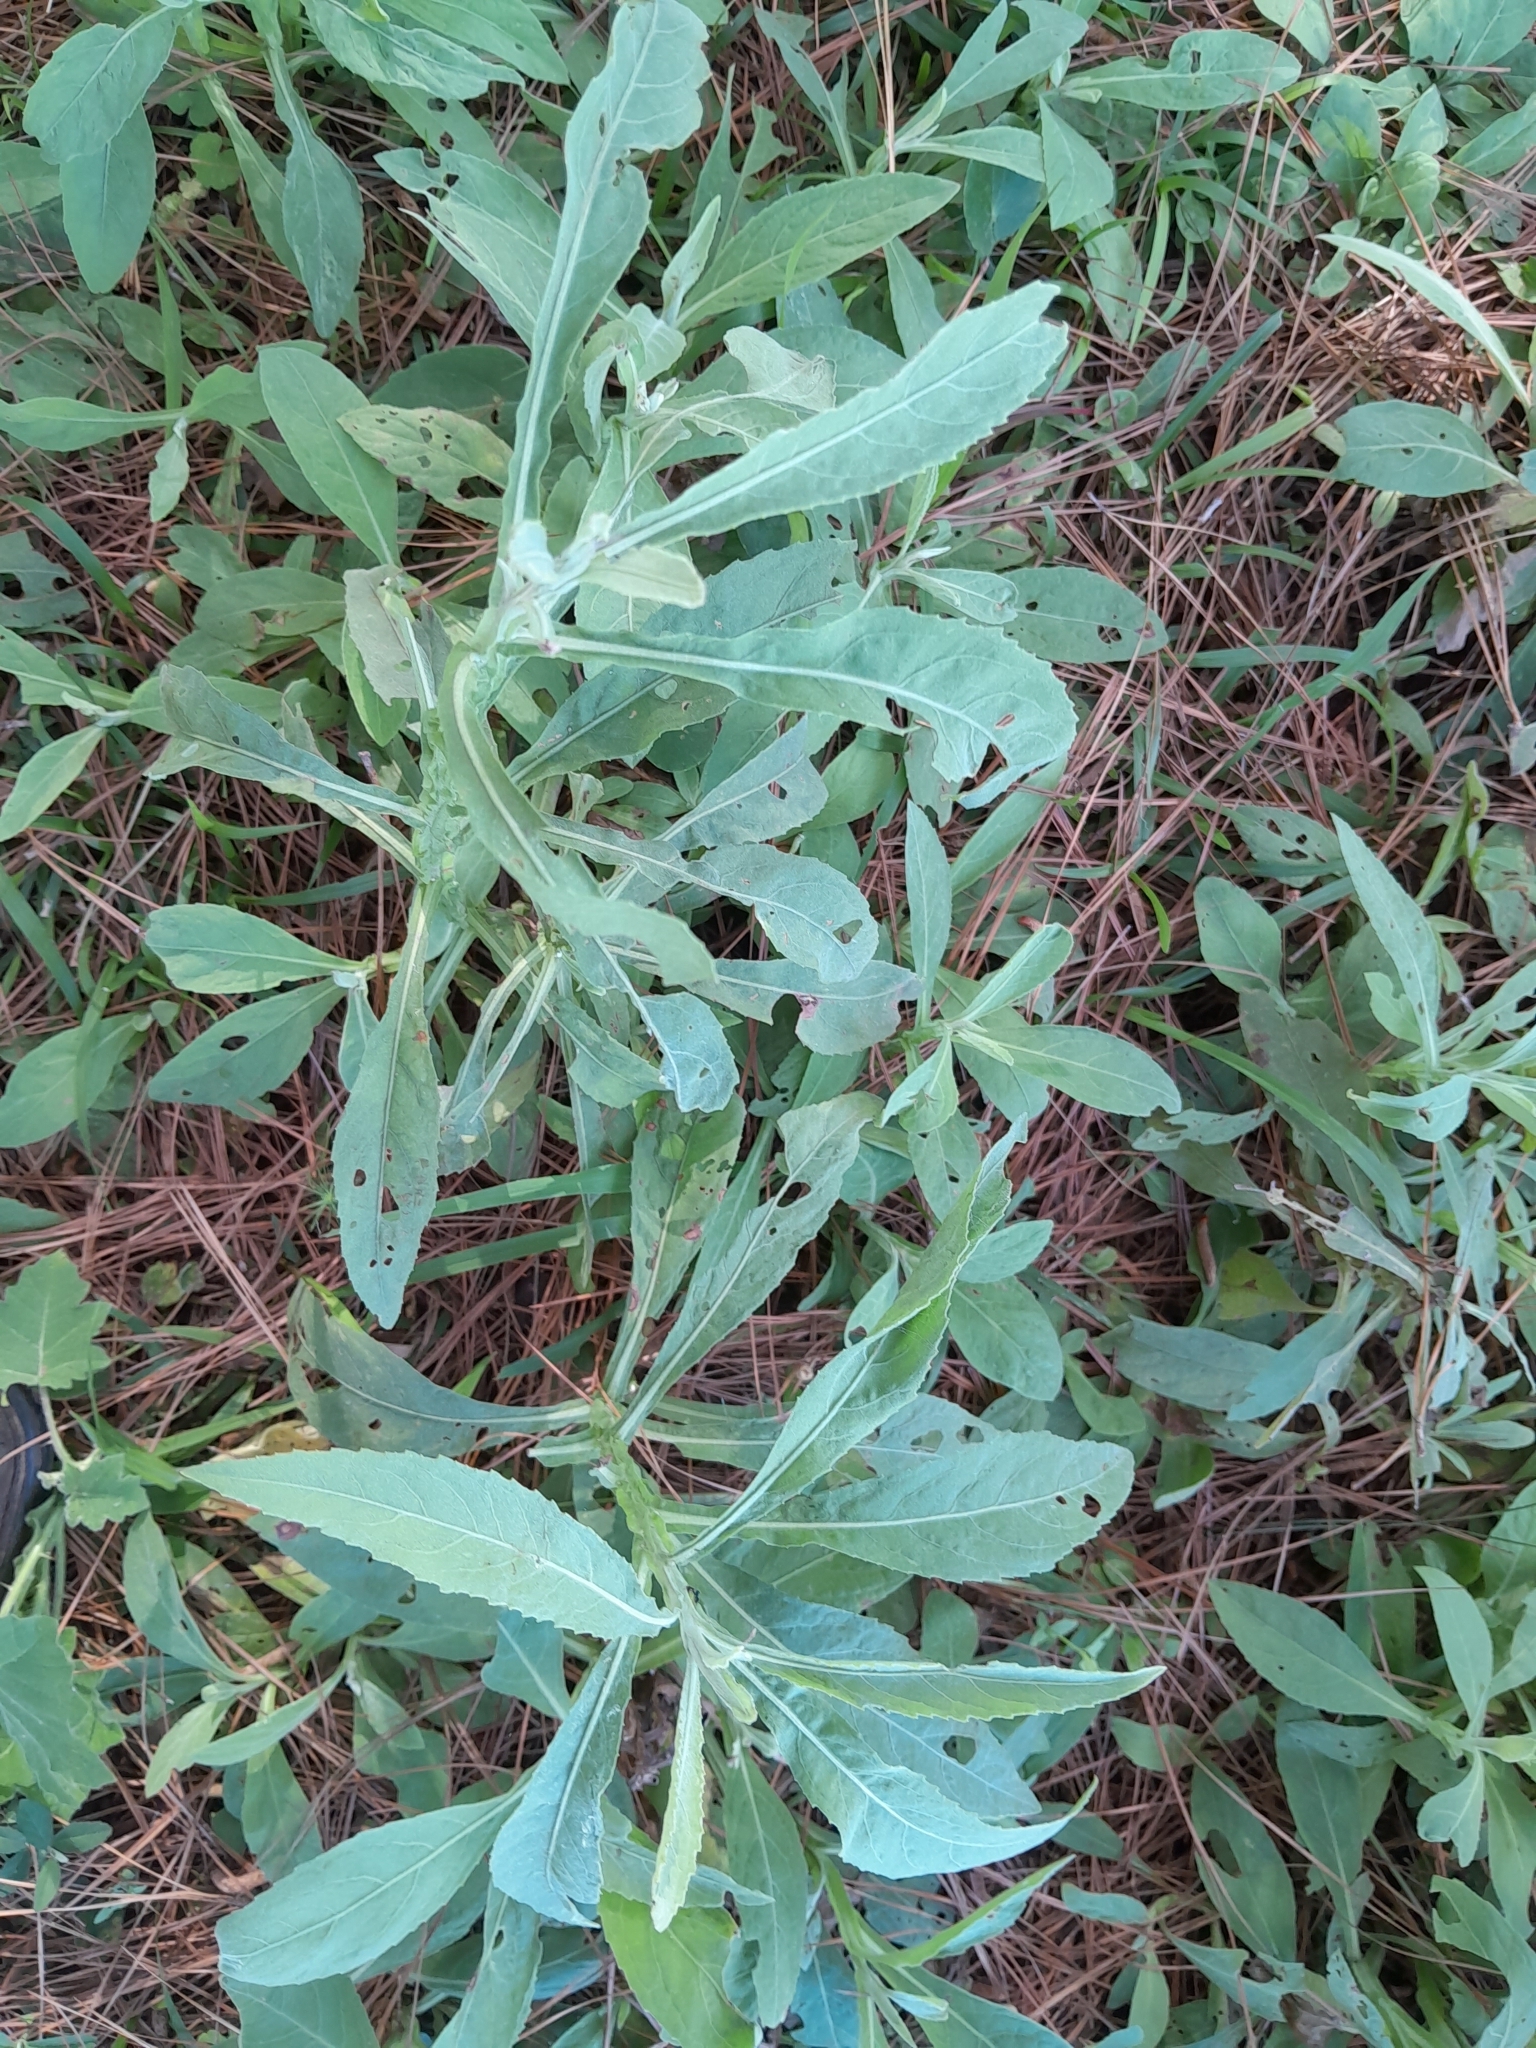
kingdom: Plantae
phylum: Tracheophyta
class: Magnoliopsida
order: Asterales
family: Asteraceae
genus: Pluchea
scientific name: Pluchea sagittalis
